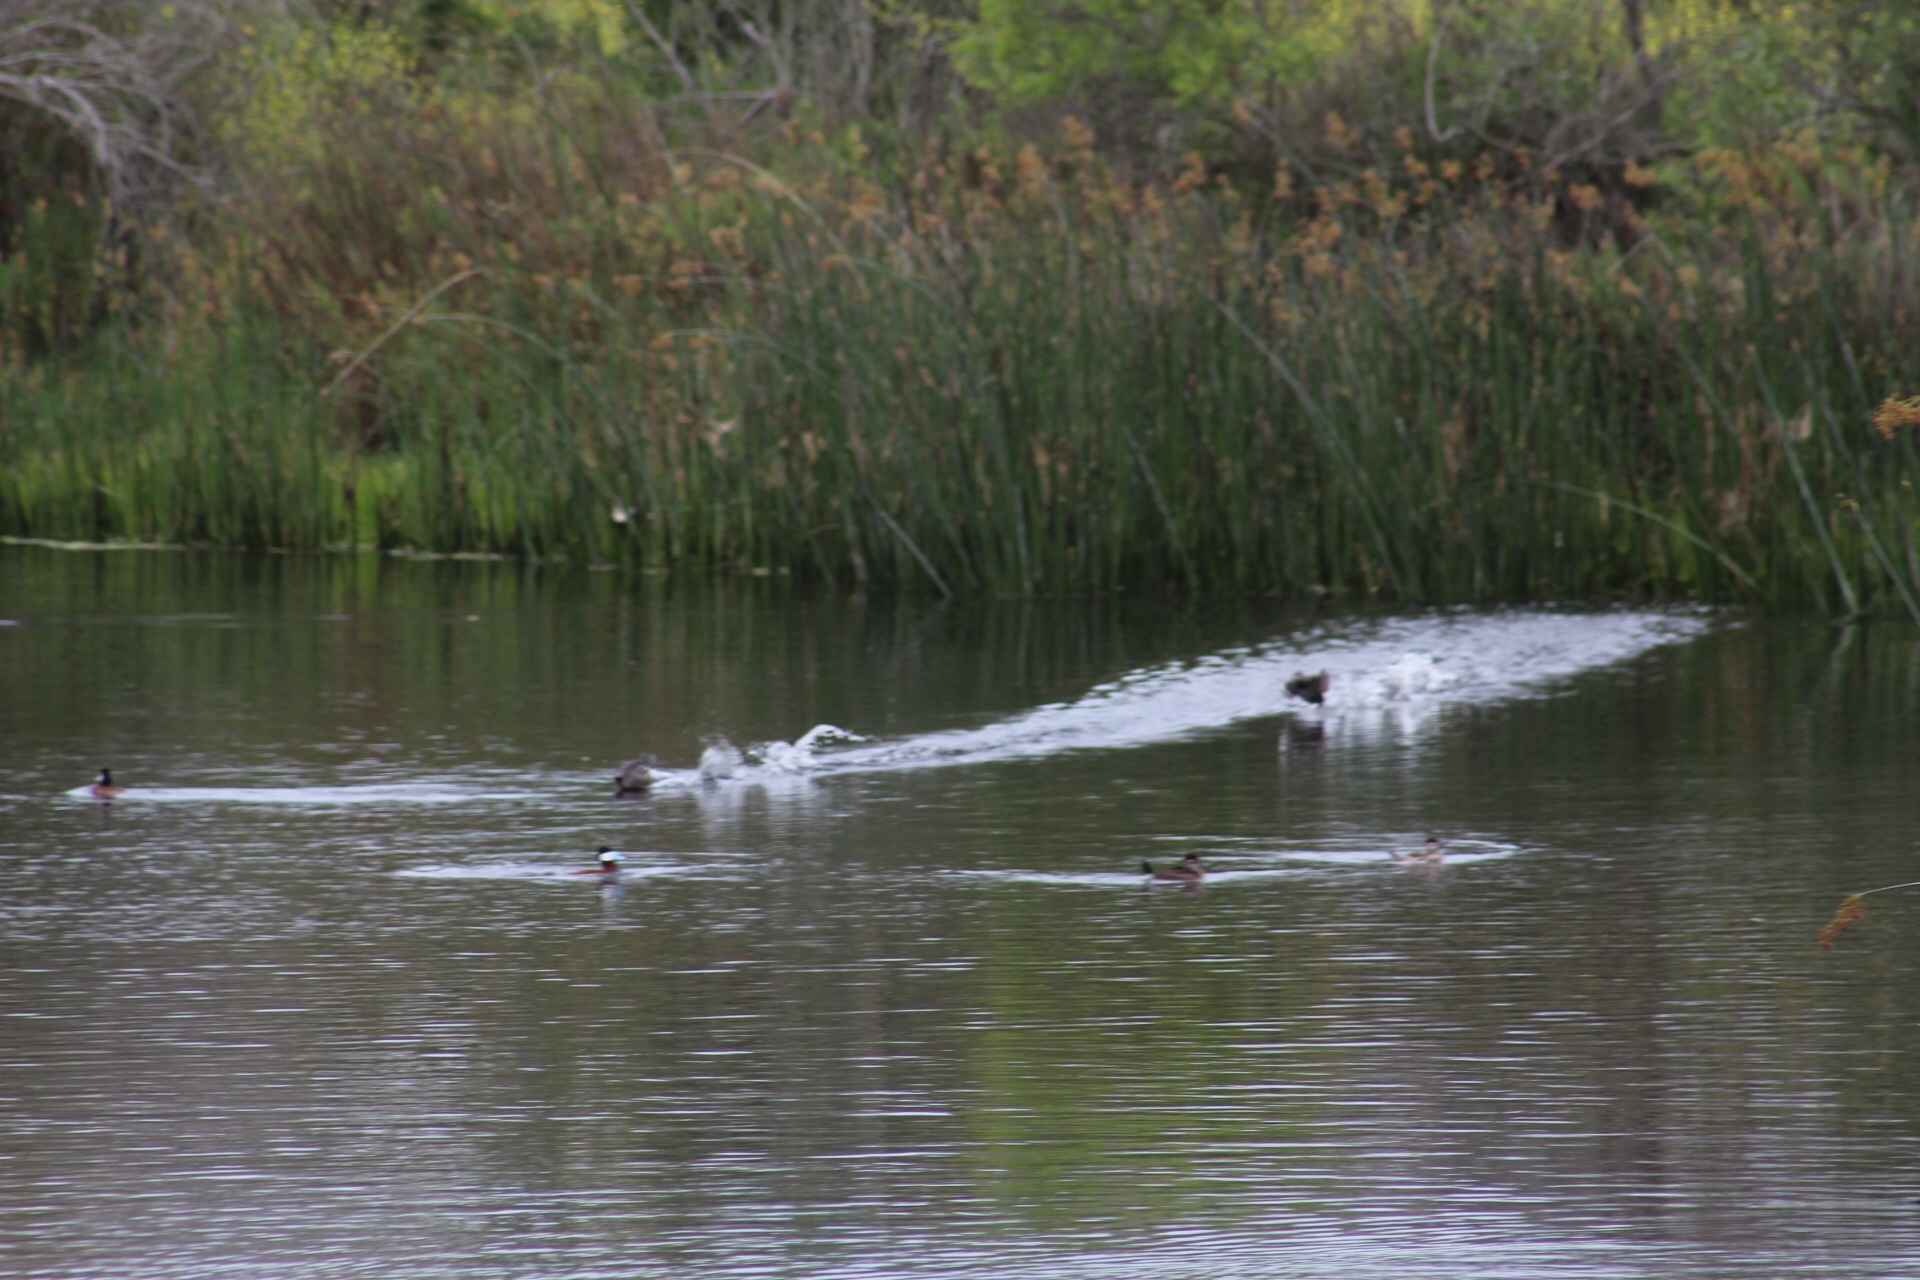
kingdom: Animalia
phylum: Chordata
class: Aves
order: Anseriformes
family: Anatidae
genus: Oxyura
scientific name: Oxyura jamaicensis
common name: Ruddy duck
